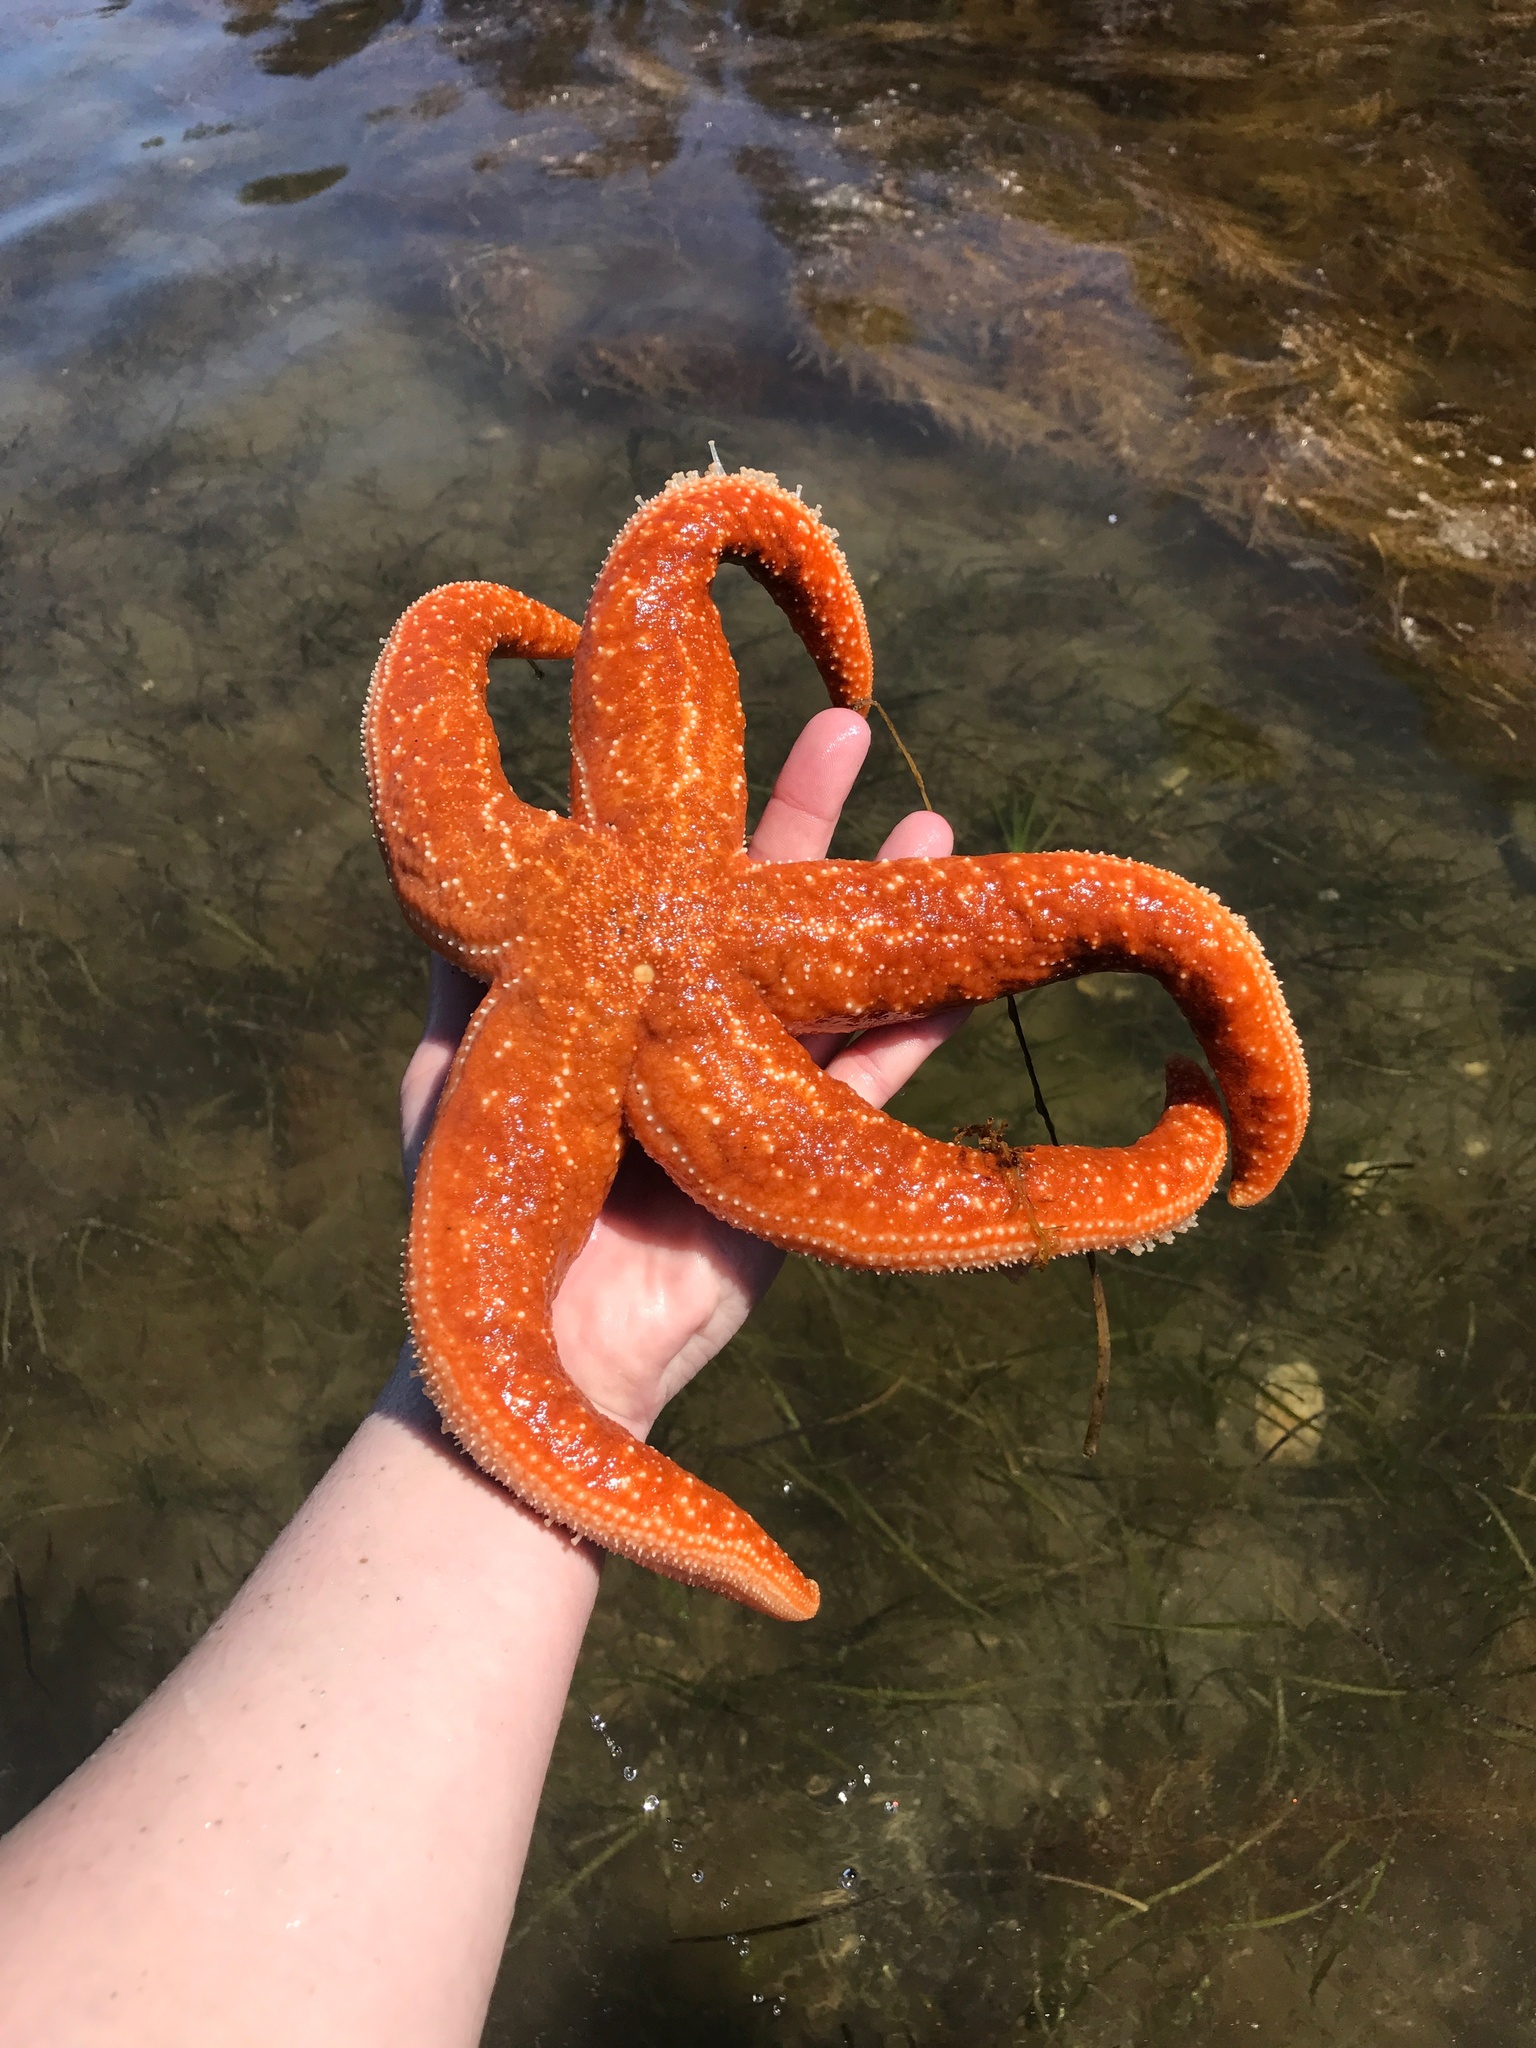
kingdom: Animalia
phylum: Echinodermata
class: Asteroidea
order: Forcipulatida
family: Asteriidae
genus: Evasterias
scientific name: Evasterias troschelii
